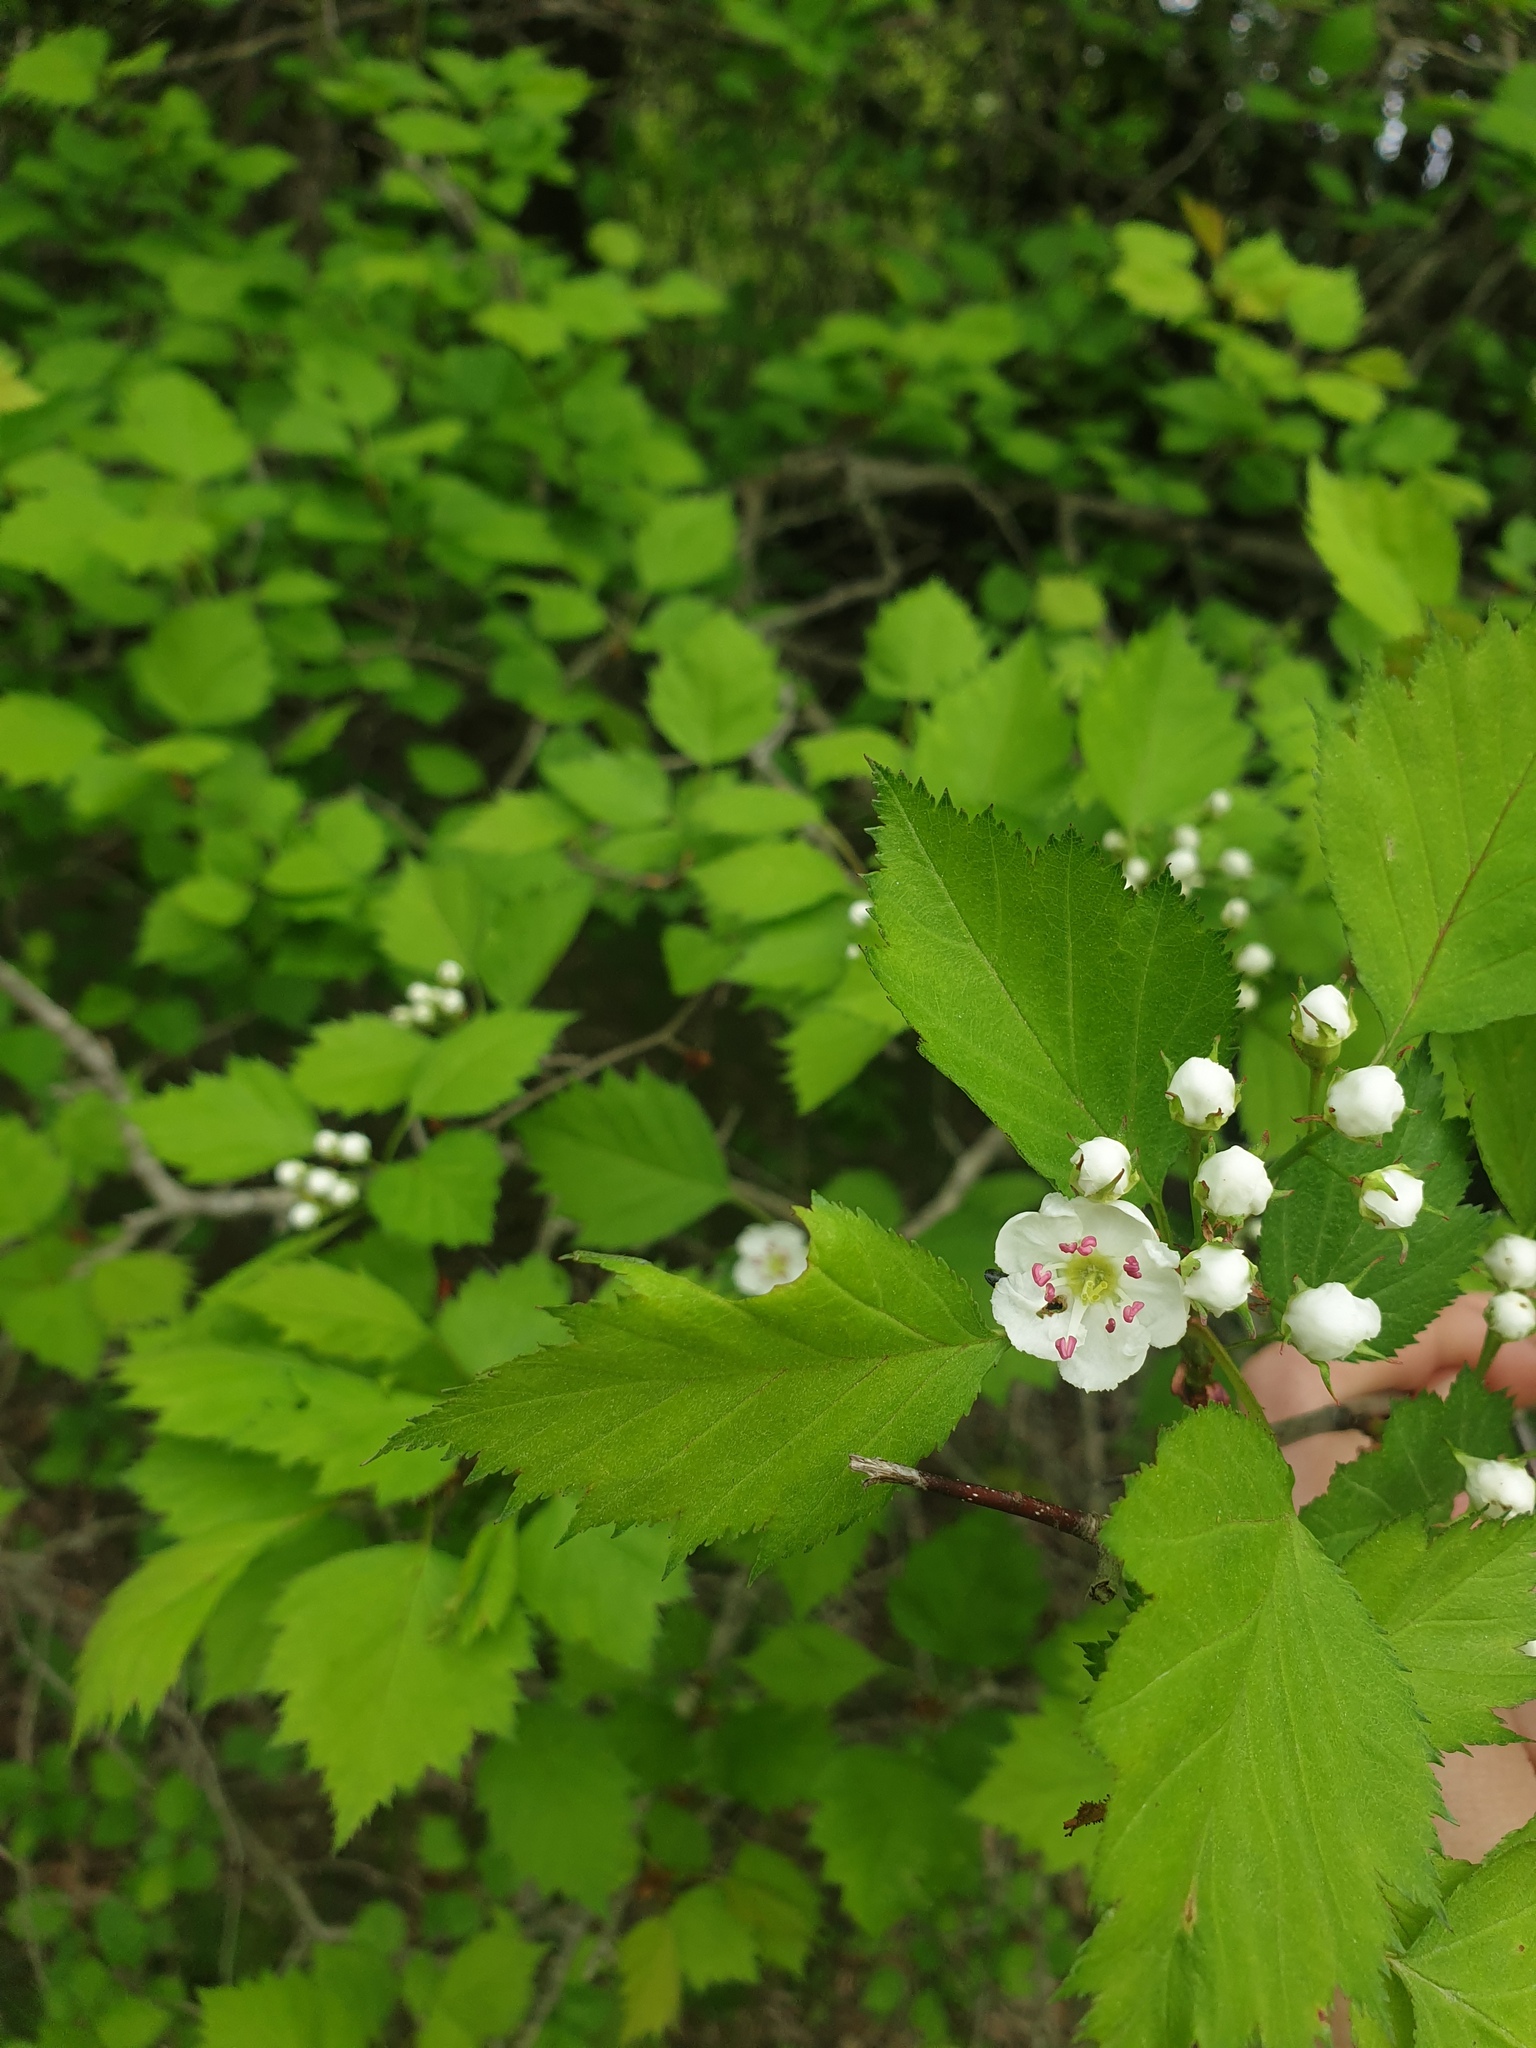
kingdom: Plantae
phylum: Tracheophyta
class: Magnoliopsida
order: Rosales
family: Rosaceae
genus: Crataegus
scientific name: Crataegus macrosperma
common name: Variable hawthorn
